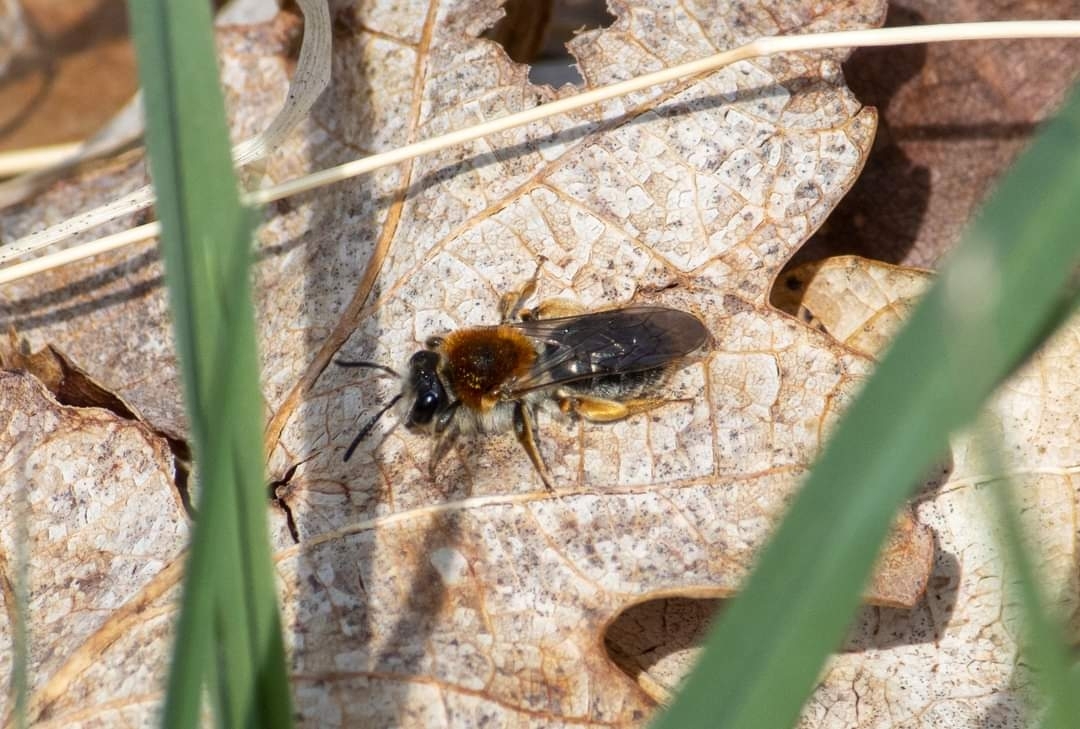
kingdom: Animalia
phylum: Arthropoda
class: Insecta
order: Hymenoptera
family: Andrenidae
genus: Andrena
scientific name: Andrena haemorrhoa
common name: Early mining bee
